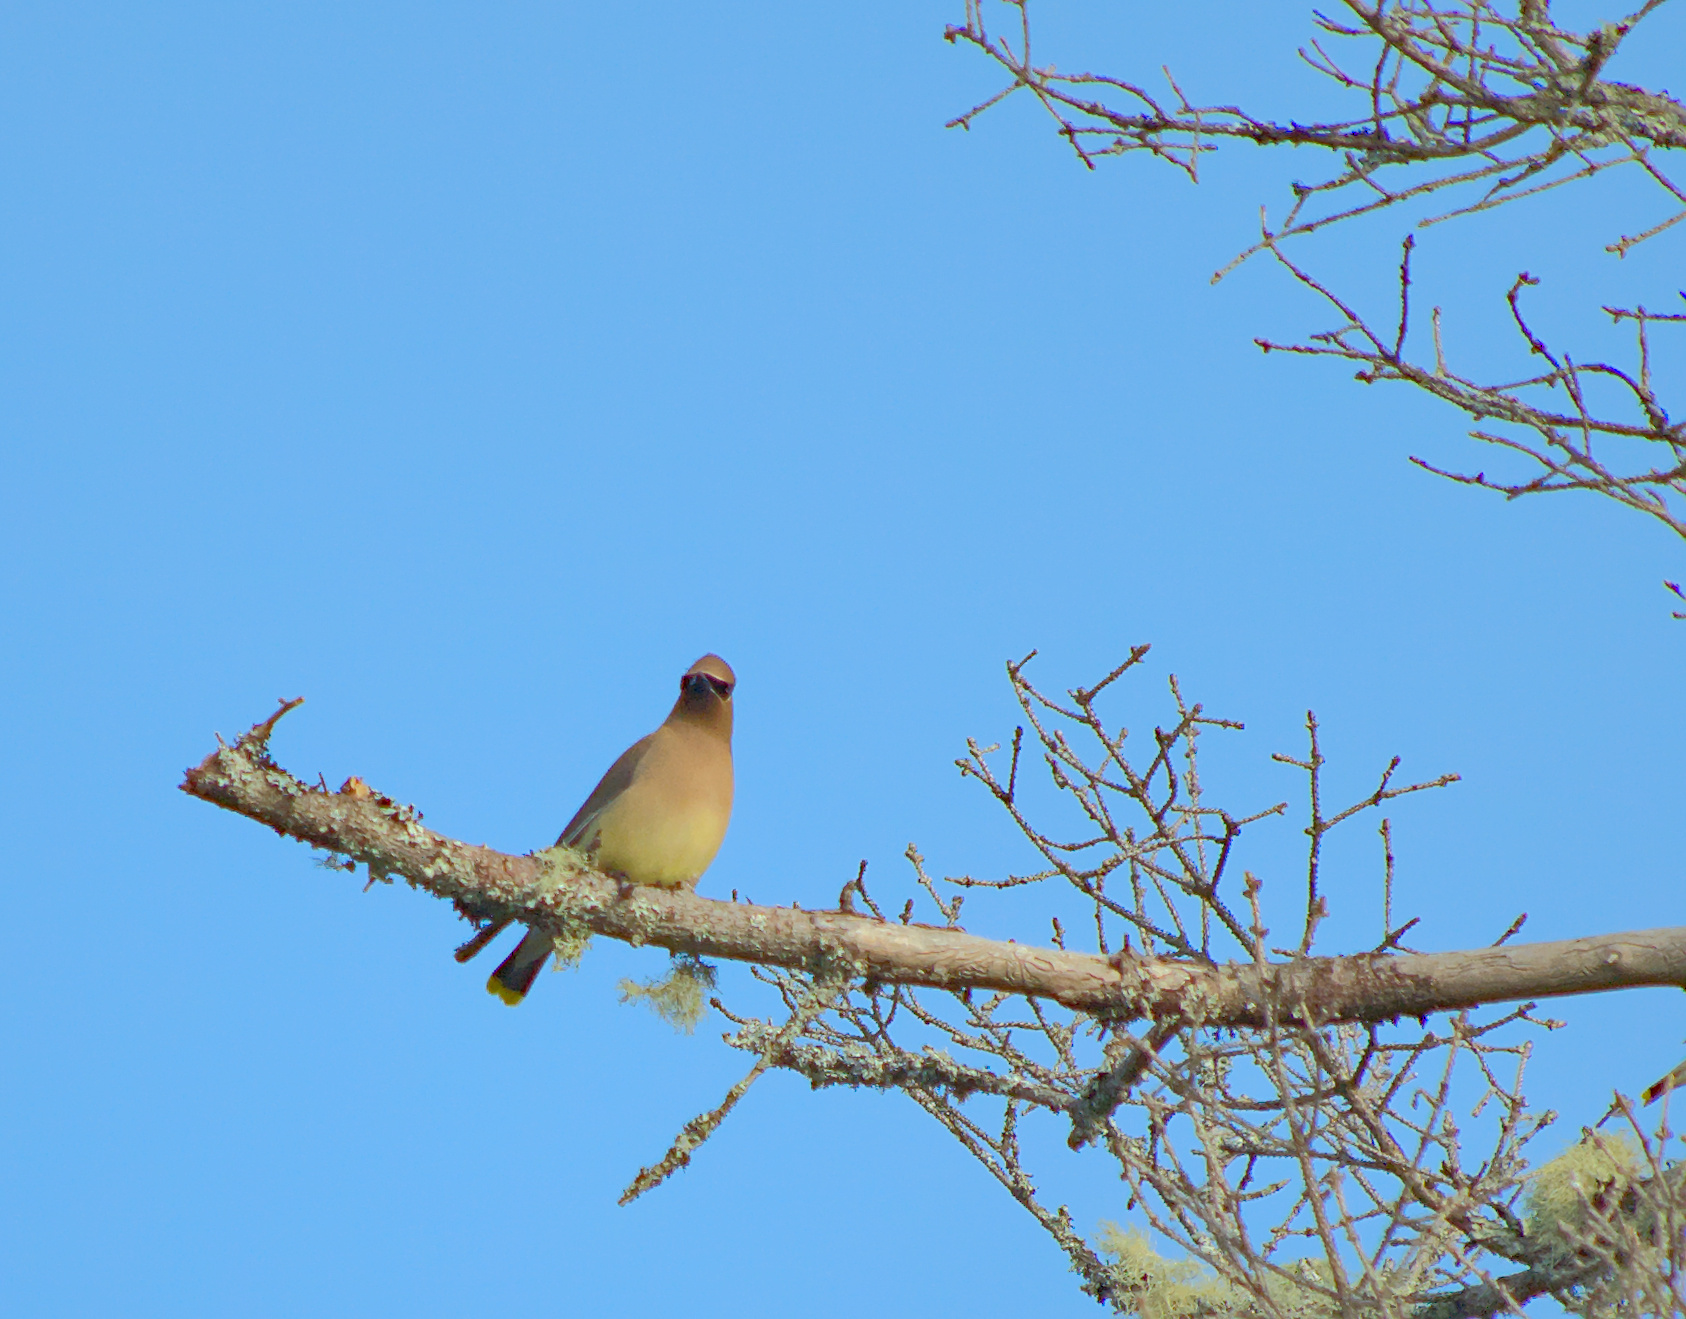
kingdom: Animalia
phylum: Chordata
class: Aves
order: Passeriformes
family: Bombycillidae
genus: Bombycilla
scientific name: Bombycilla cedrorum
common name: Cedar waxwing
